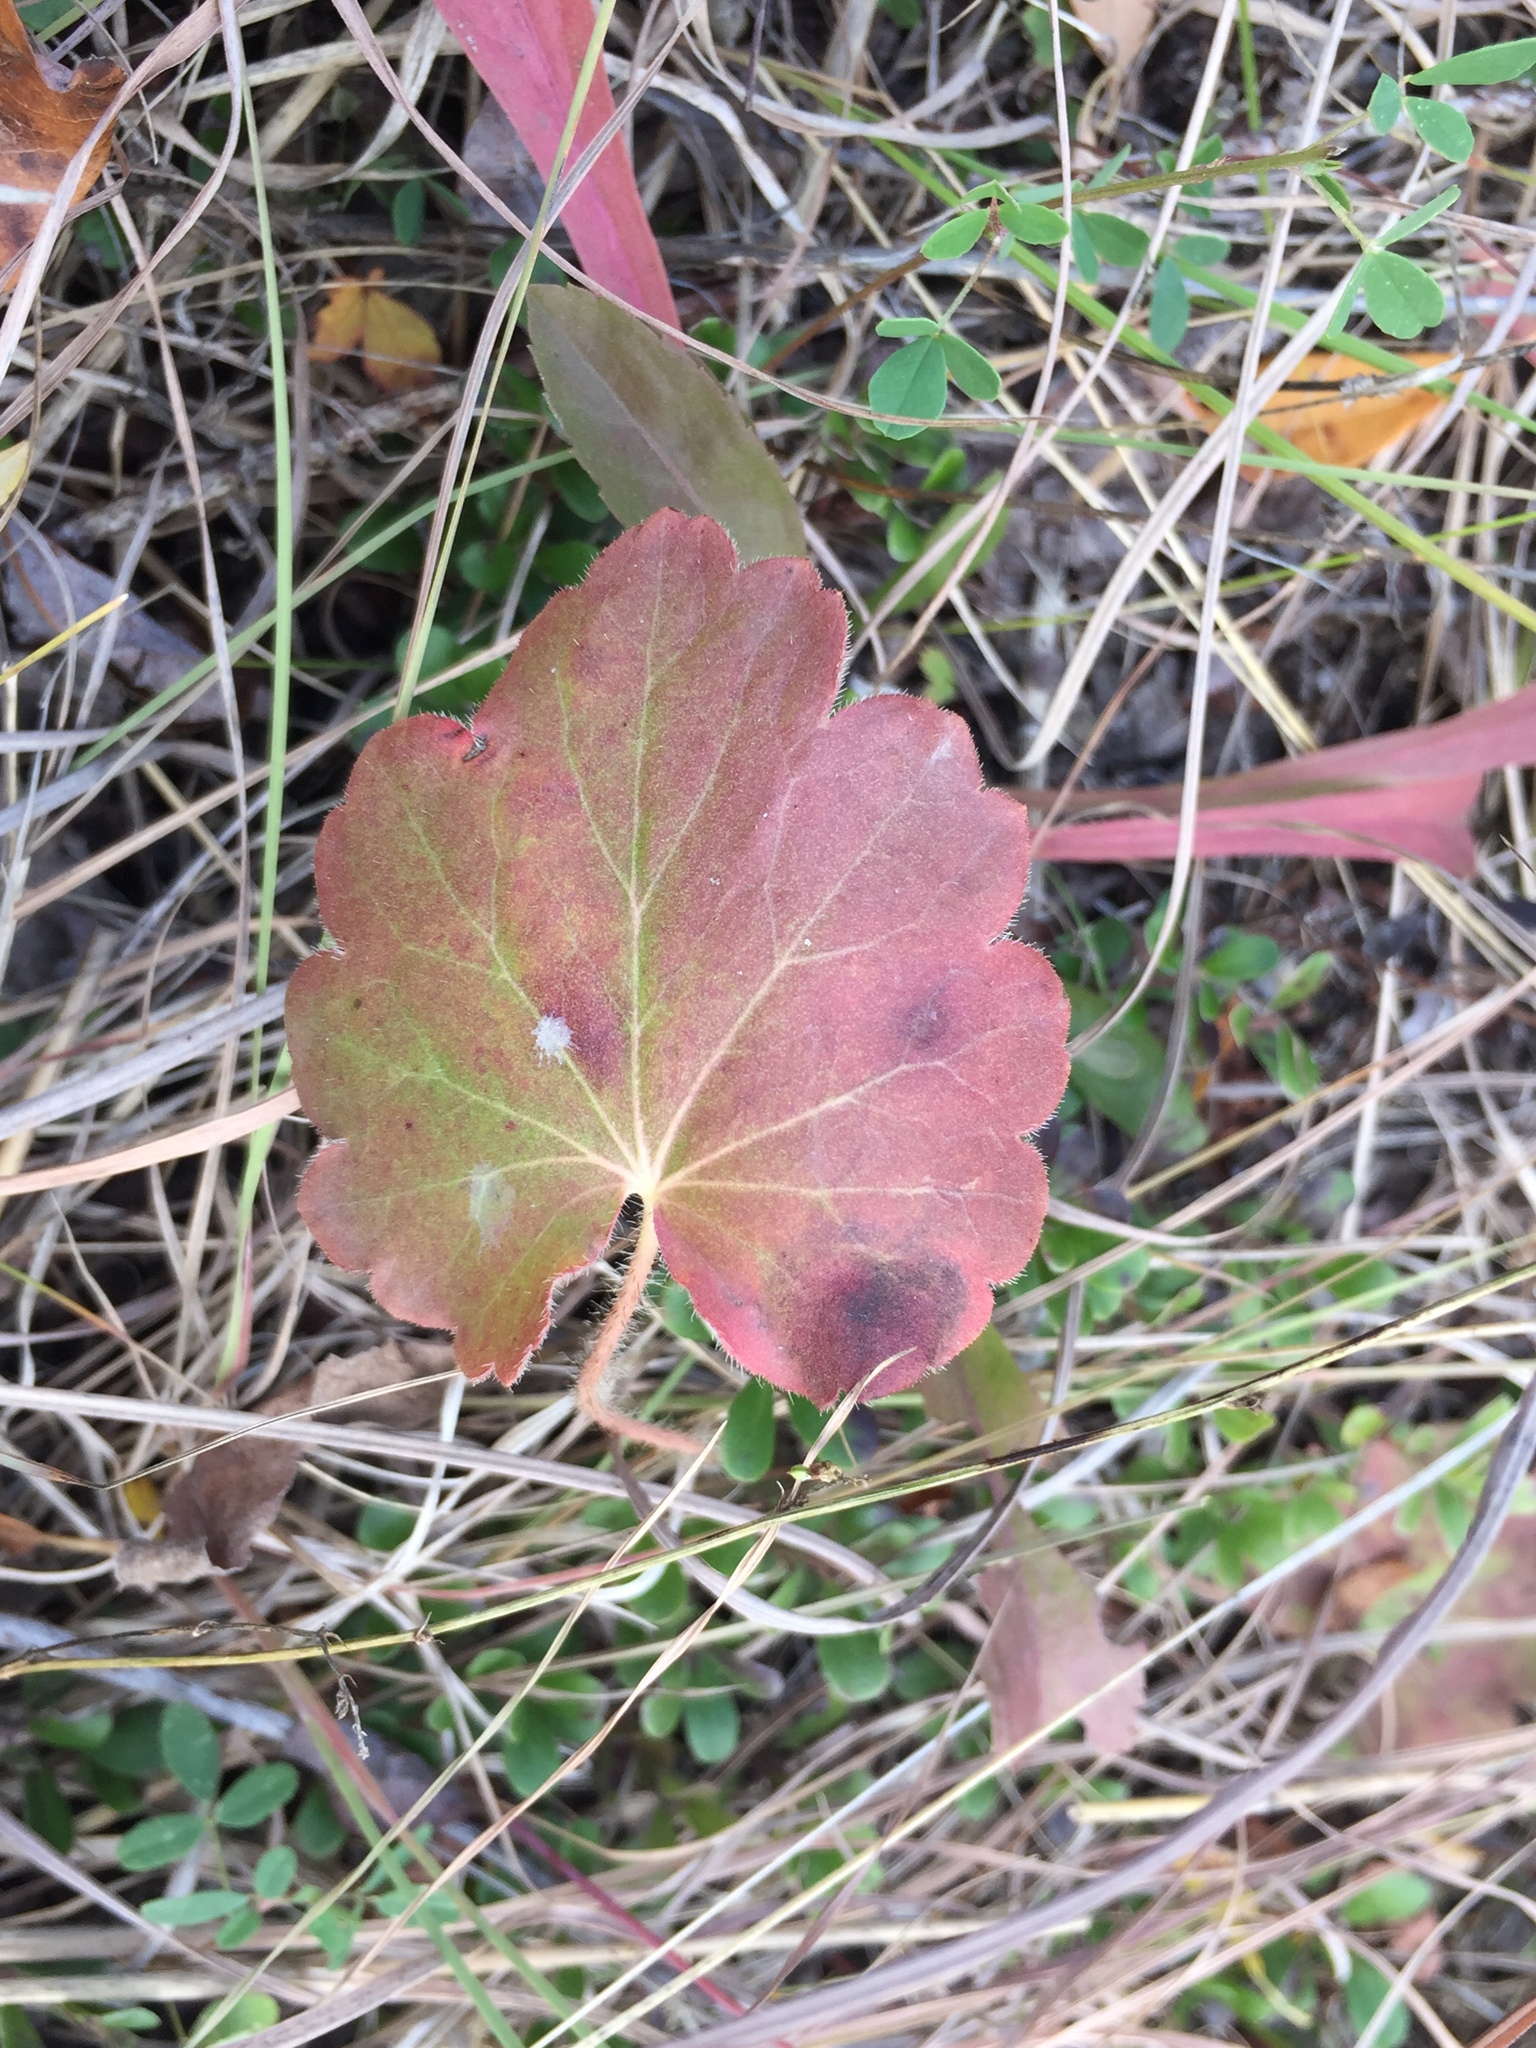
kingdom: Plantae
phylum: Tracheophyta
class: Magnoliopsida
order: Saxifragales
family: Saxifragaceae
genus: Heuchera
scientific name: Heuchera richardsonii
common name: Richardson's alumroot
